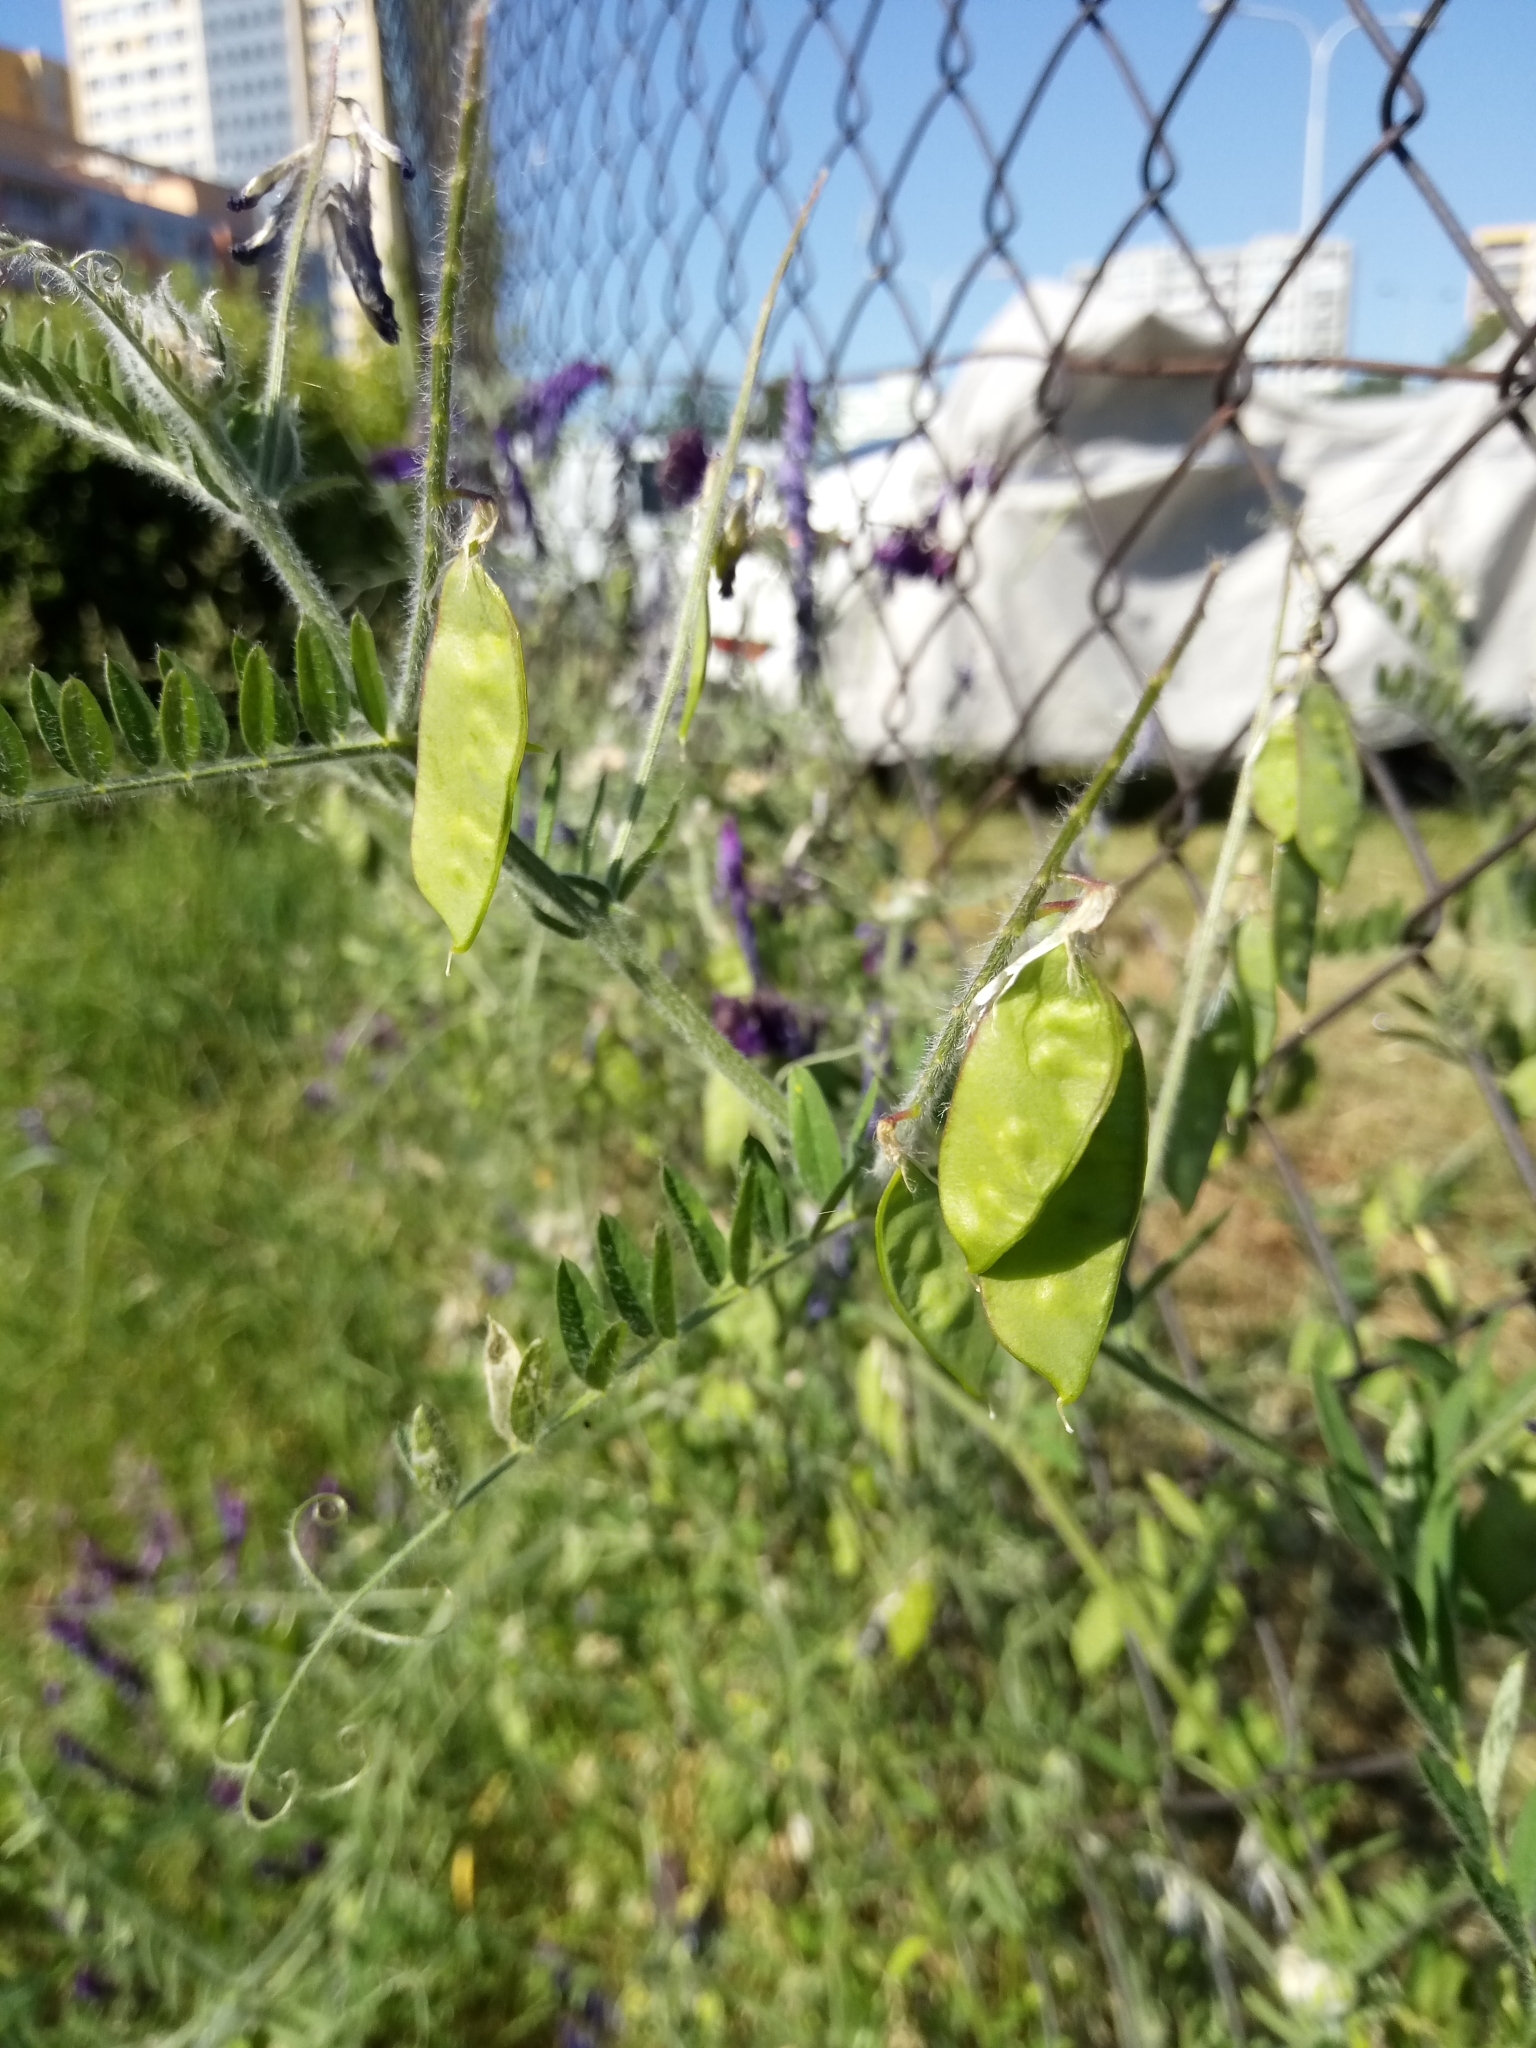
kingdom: Plantae
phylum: Tracheophyta
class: Magnoliopsida
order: Fabales
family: Fabaceae
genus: Vicia
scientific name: Vicia villosa
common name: Fodder vetch
